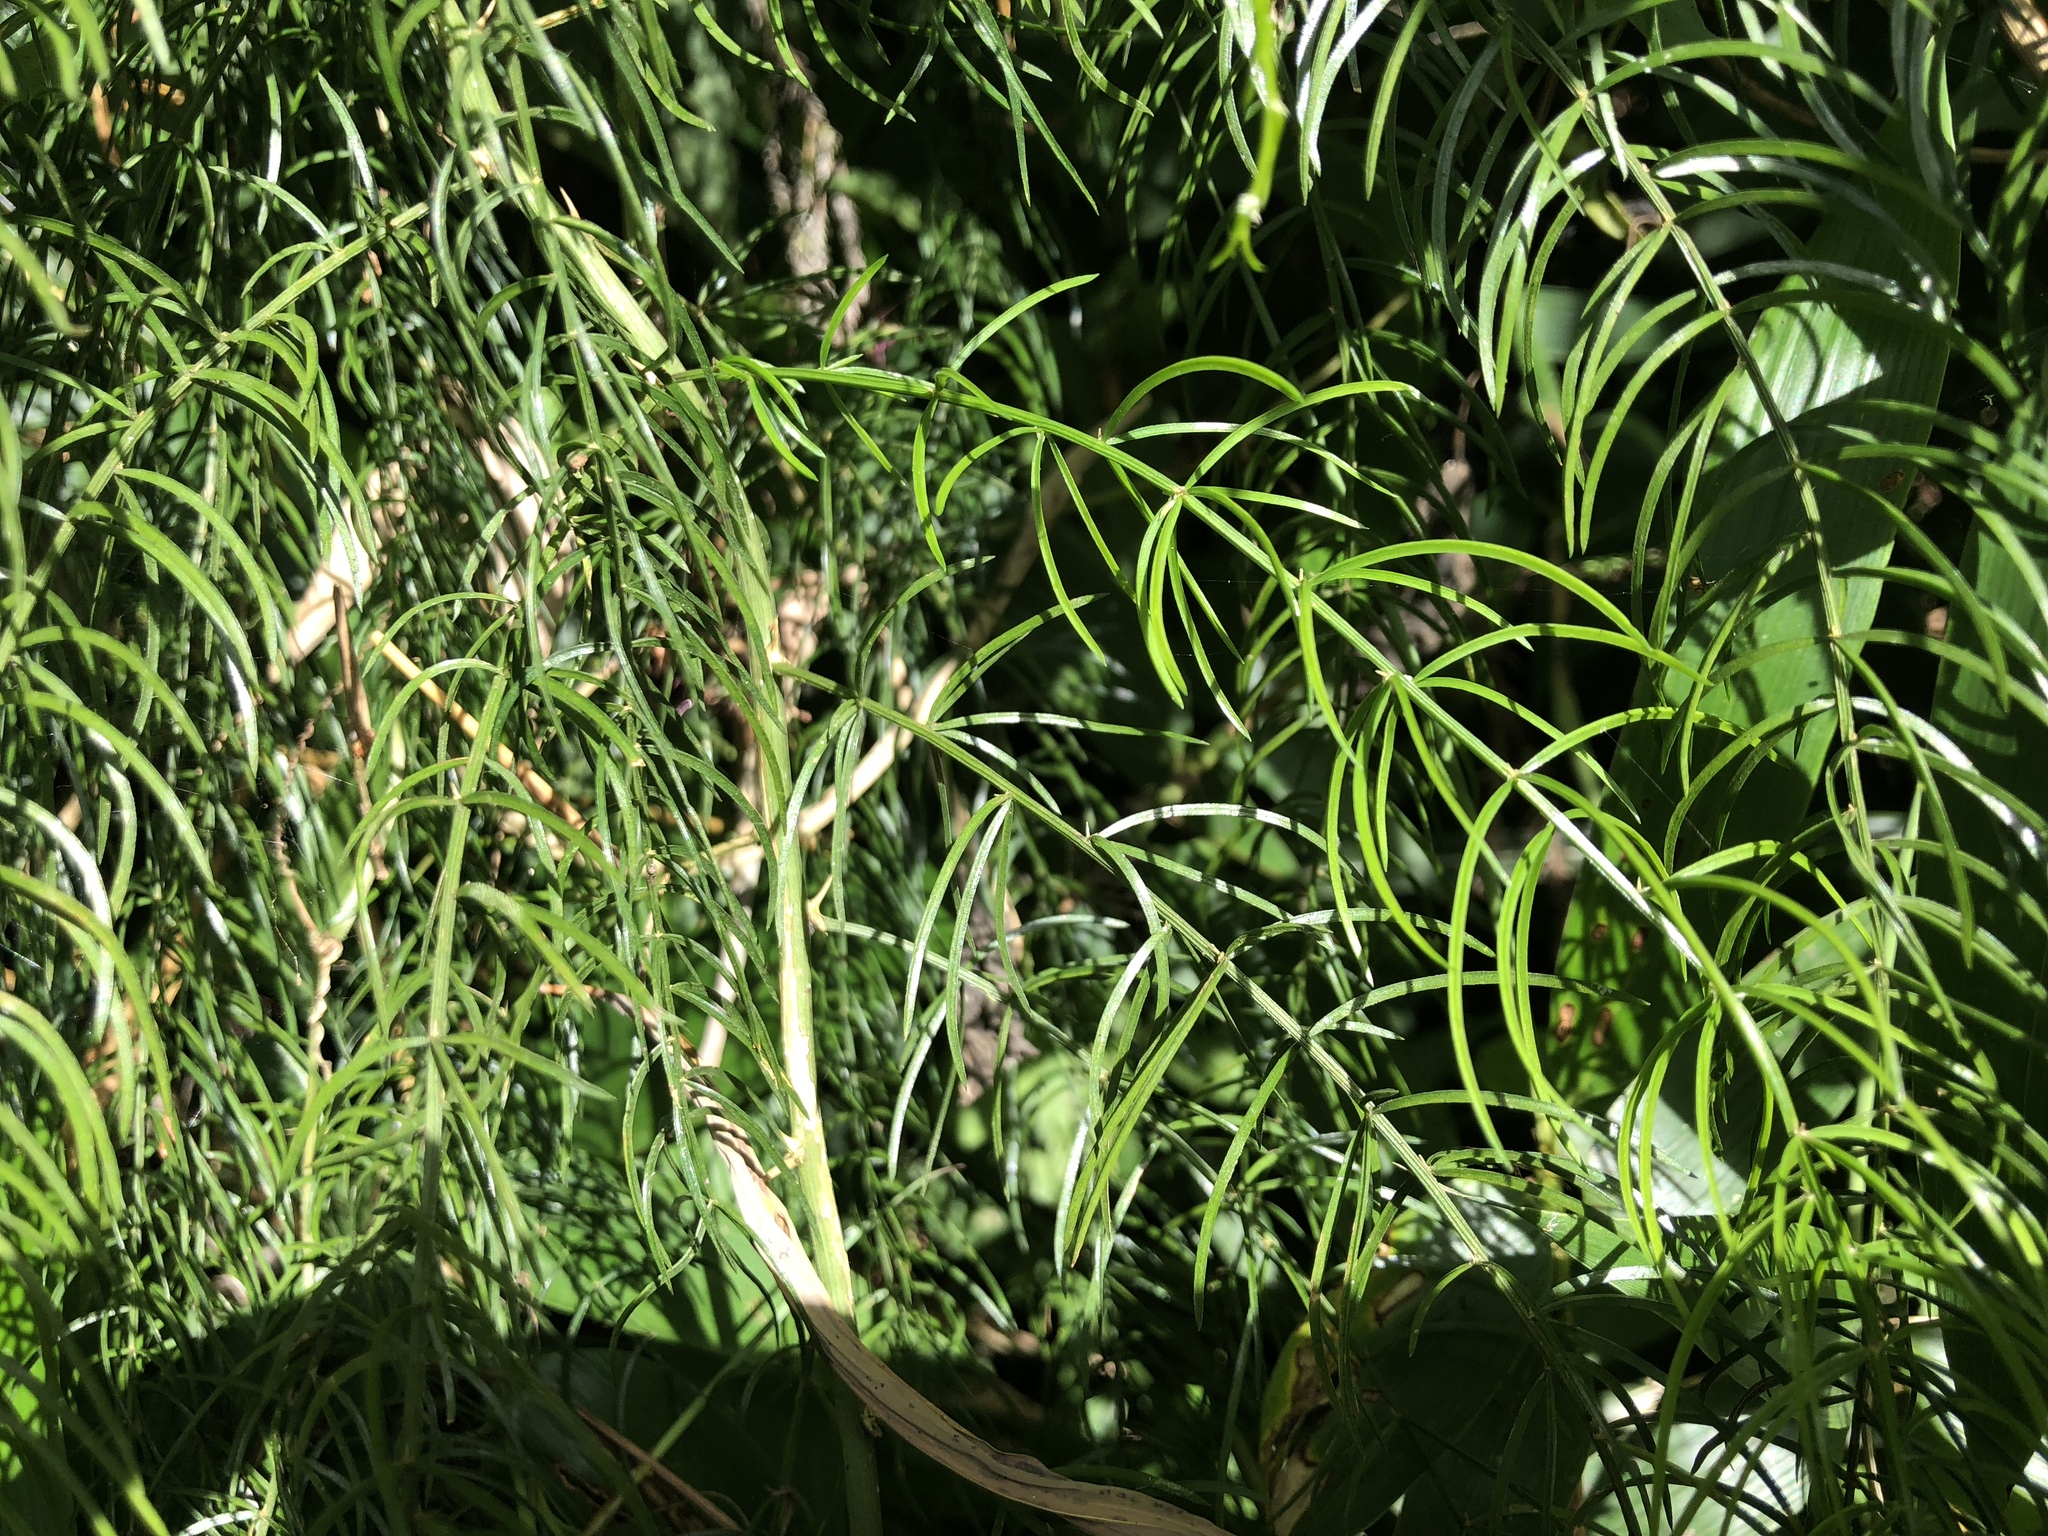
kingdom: Plantae
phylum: Tracheophyta
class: Liliopsida
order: Asparagales
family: Asparagaceae
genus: Asparagus
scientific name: Asparagus cochinchinensis
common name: Chinese asparagus
